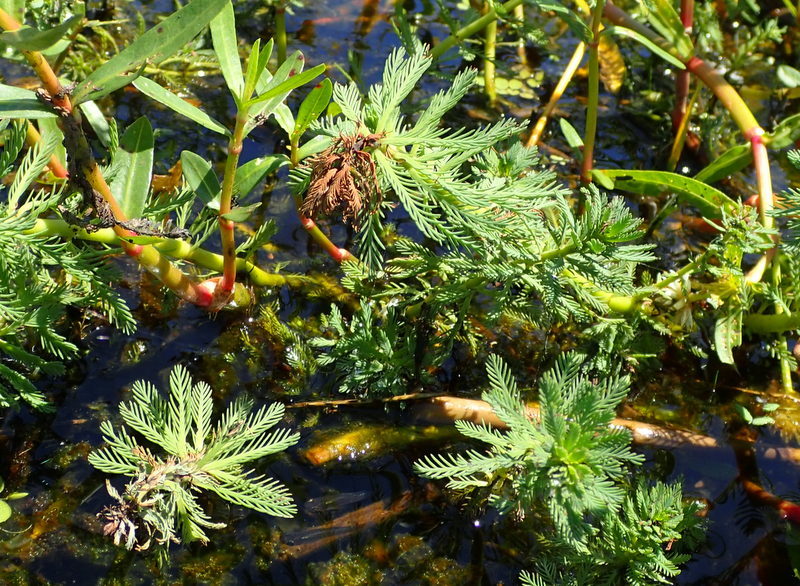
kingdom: Plantae
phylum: Tracheophyta
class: Magnoliopsida
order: Saxifragales
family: Haloragaceae
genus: Myriophyllum
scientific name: Myriophyllum aquaticum
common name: Parrot's feather
